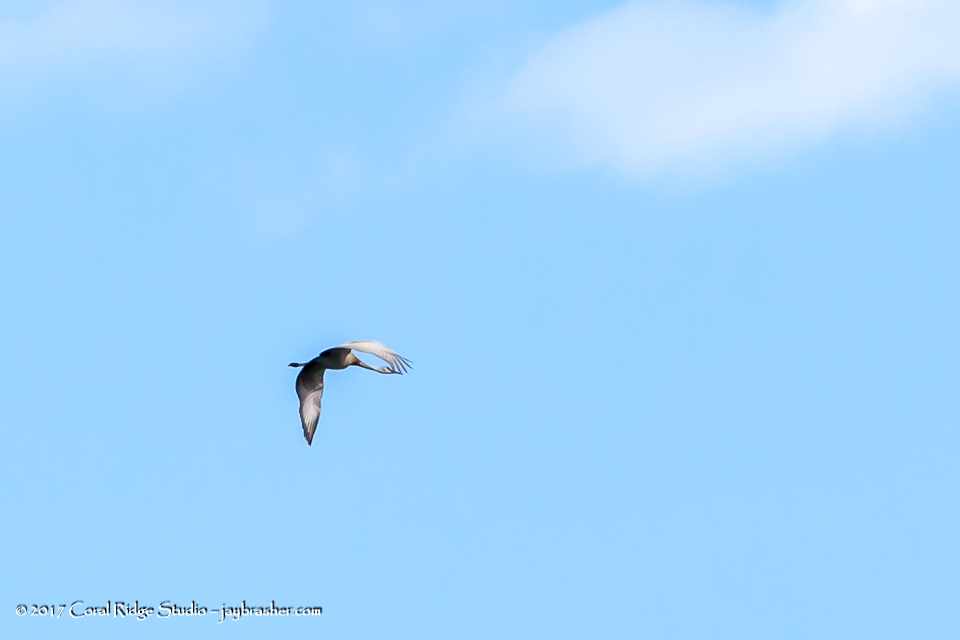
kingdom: Animalia
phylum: Chordata
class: Aves
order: Gruiformes
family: Gruidae
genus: Grus
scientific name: Grus canadensis
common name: Sandhill crane
